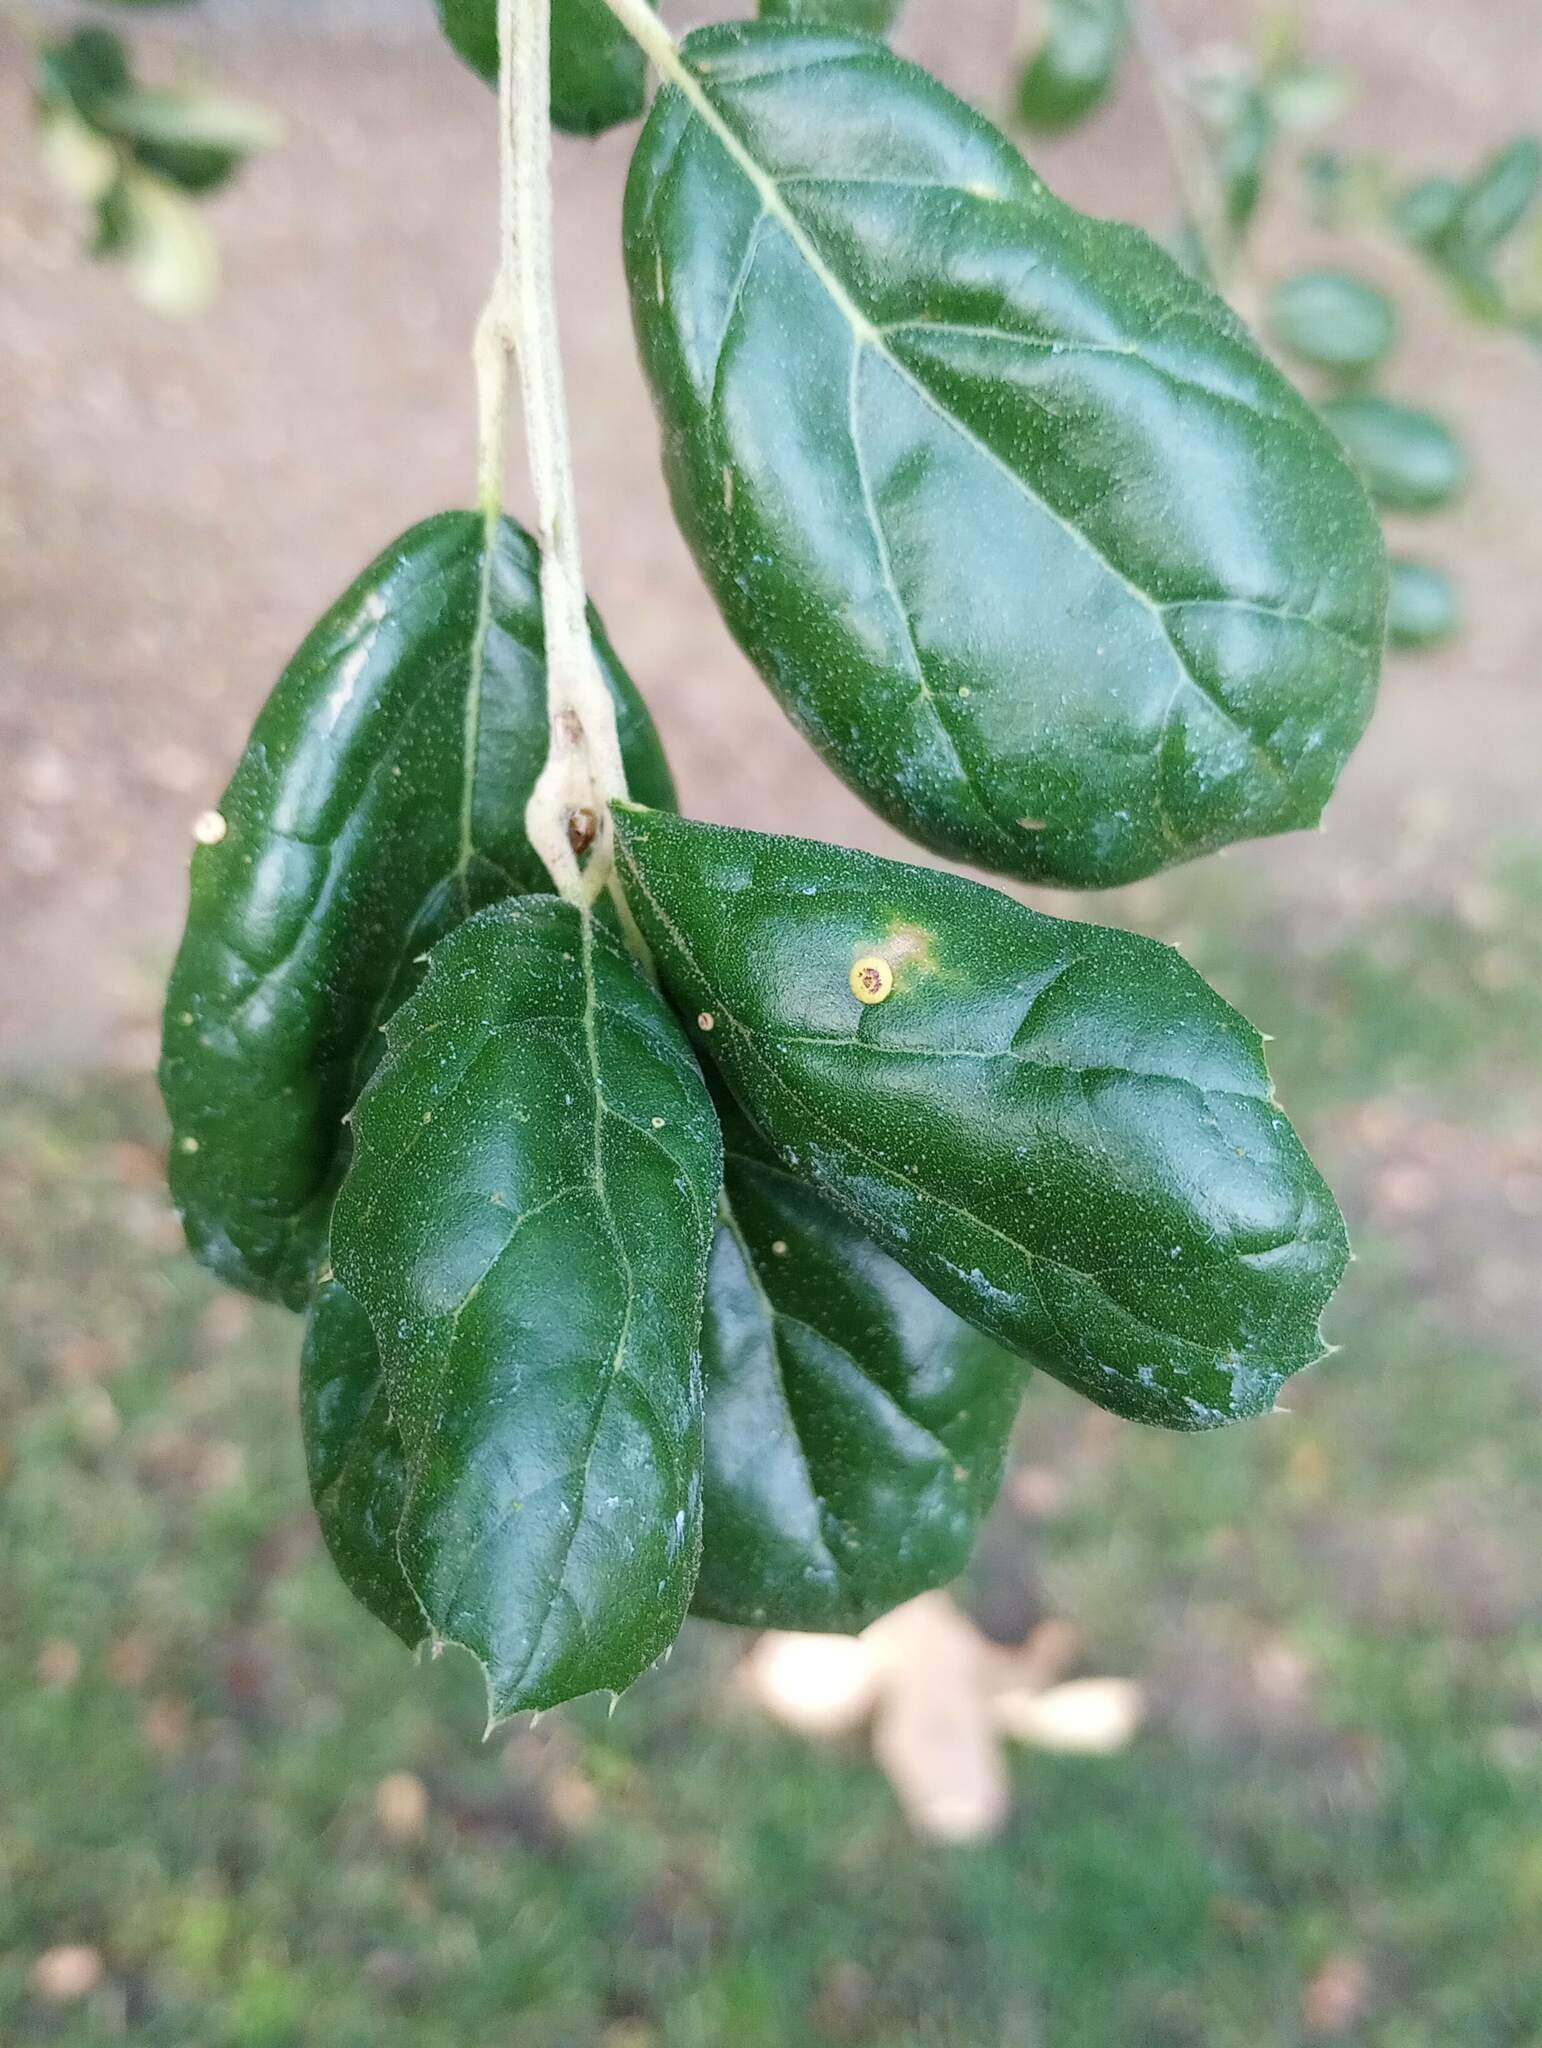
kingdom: Animalia
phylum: Arthropoda
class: Insecta
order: Hymenoptera
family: Cynipidae
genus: Dryocosmus
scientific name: Dryocosmus
